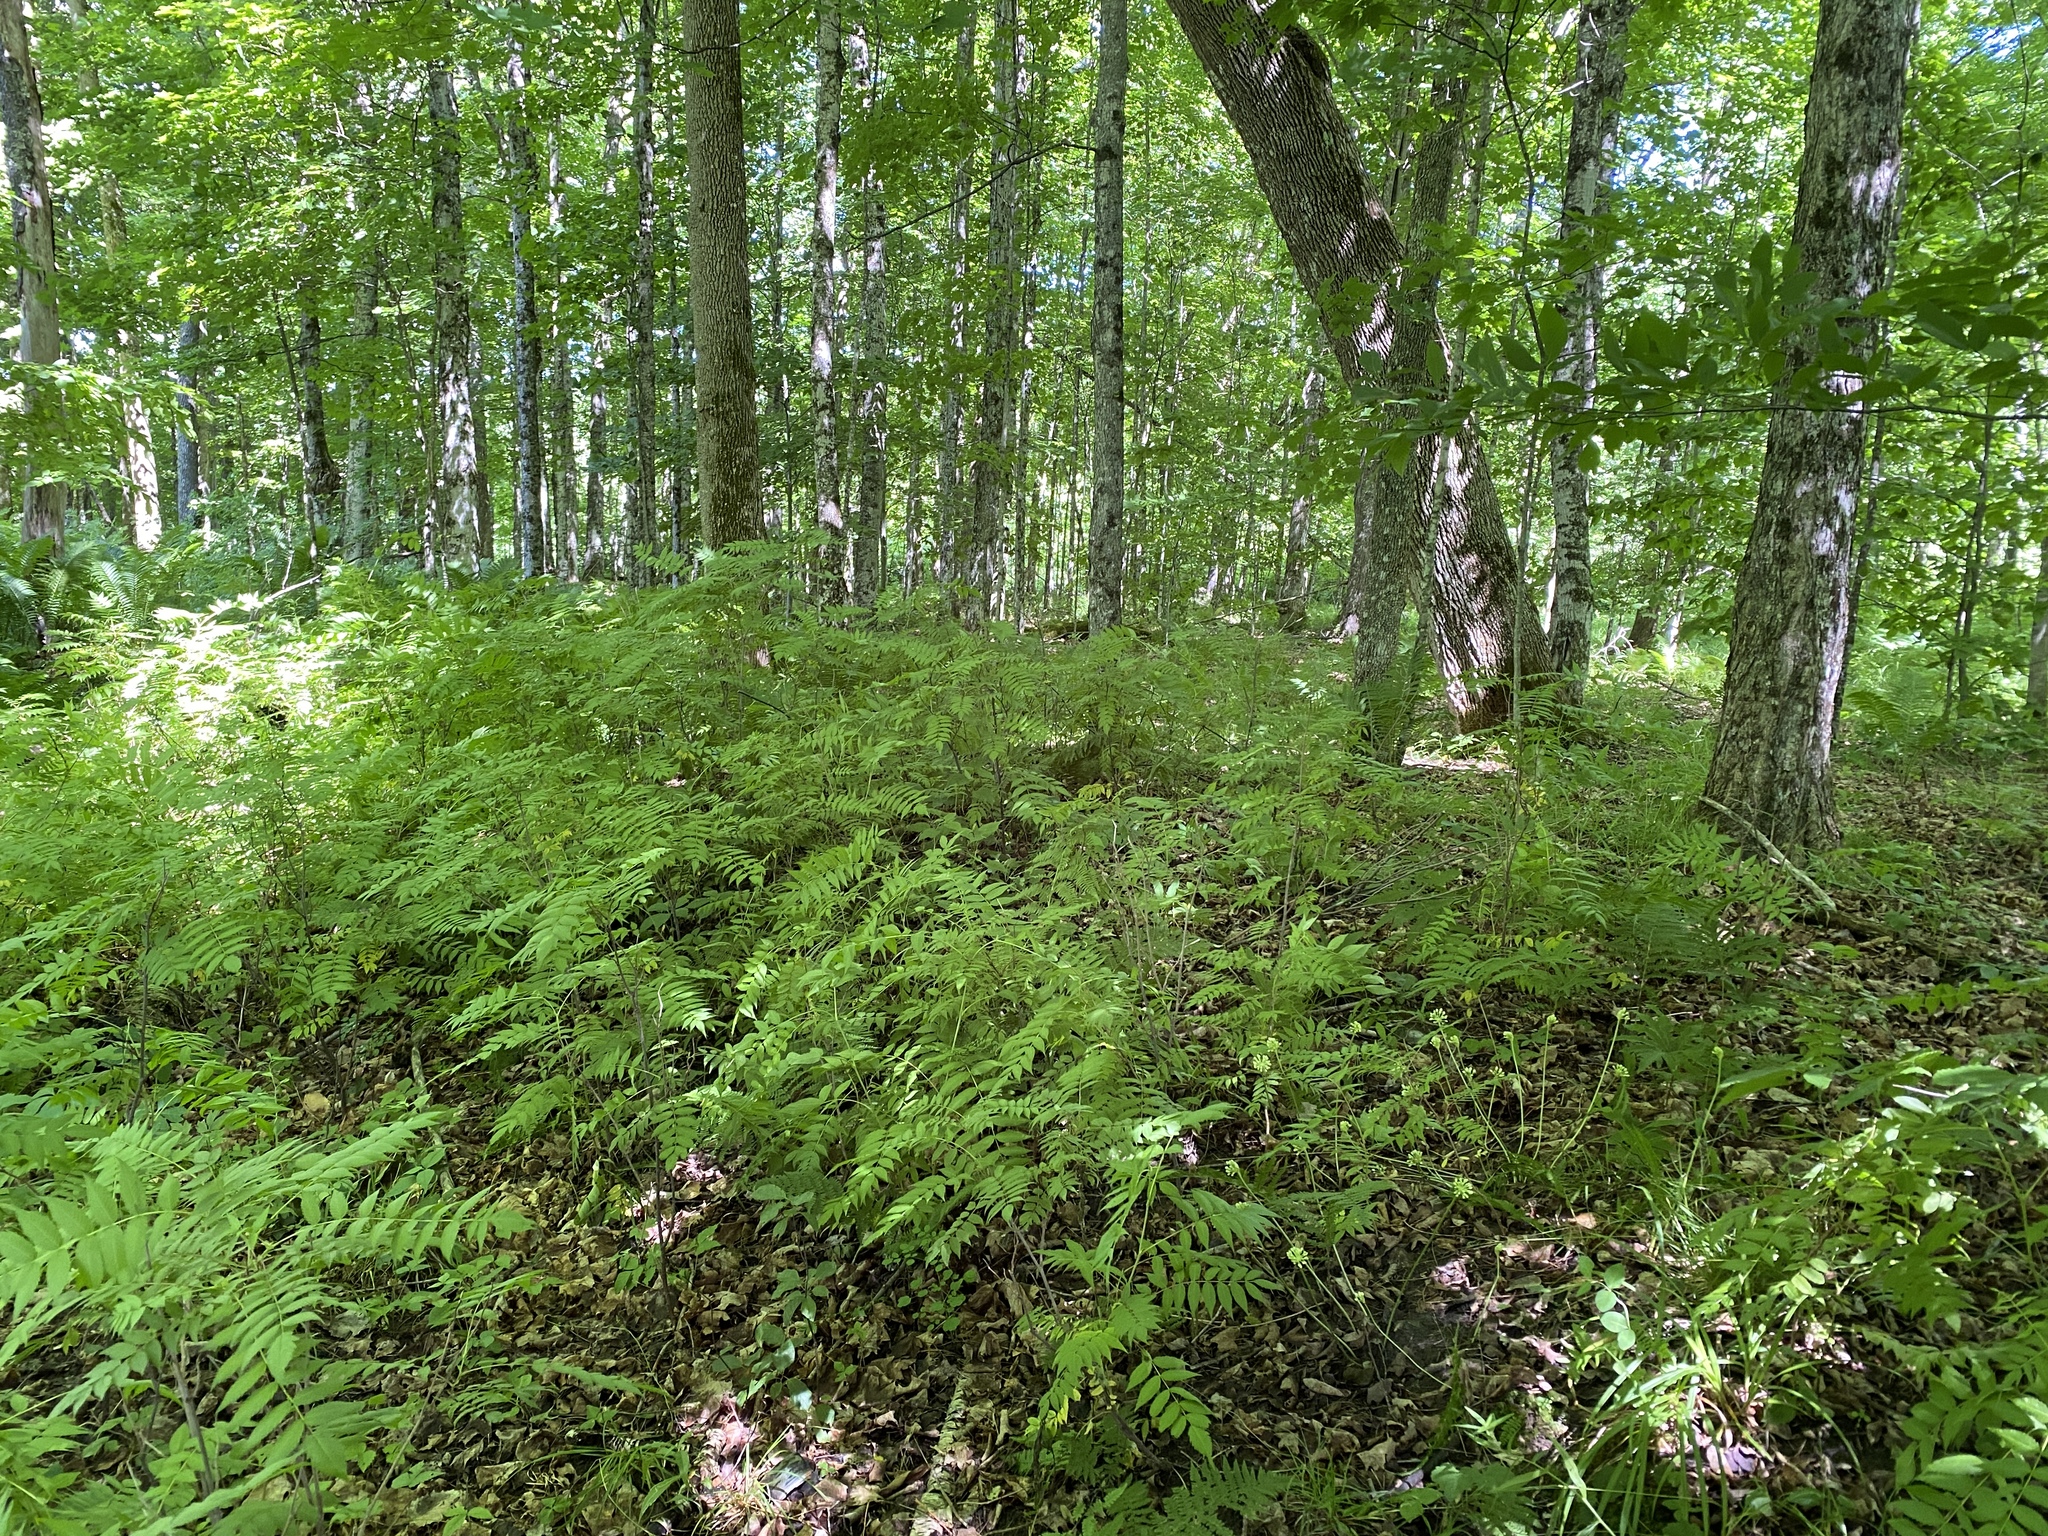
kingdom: Plantae
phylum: Tracheophyta
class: Magnoliopsida
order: Rosales
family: Rosaceae
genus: Sorbaria
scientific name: Sorbaria sorbifolia
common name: False spiraea
